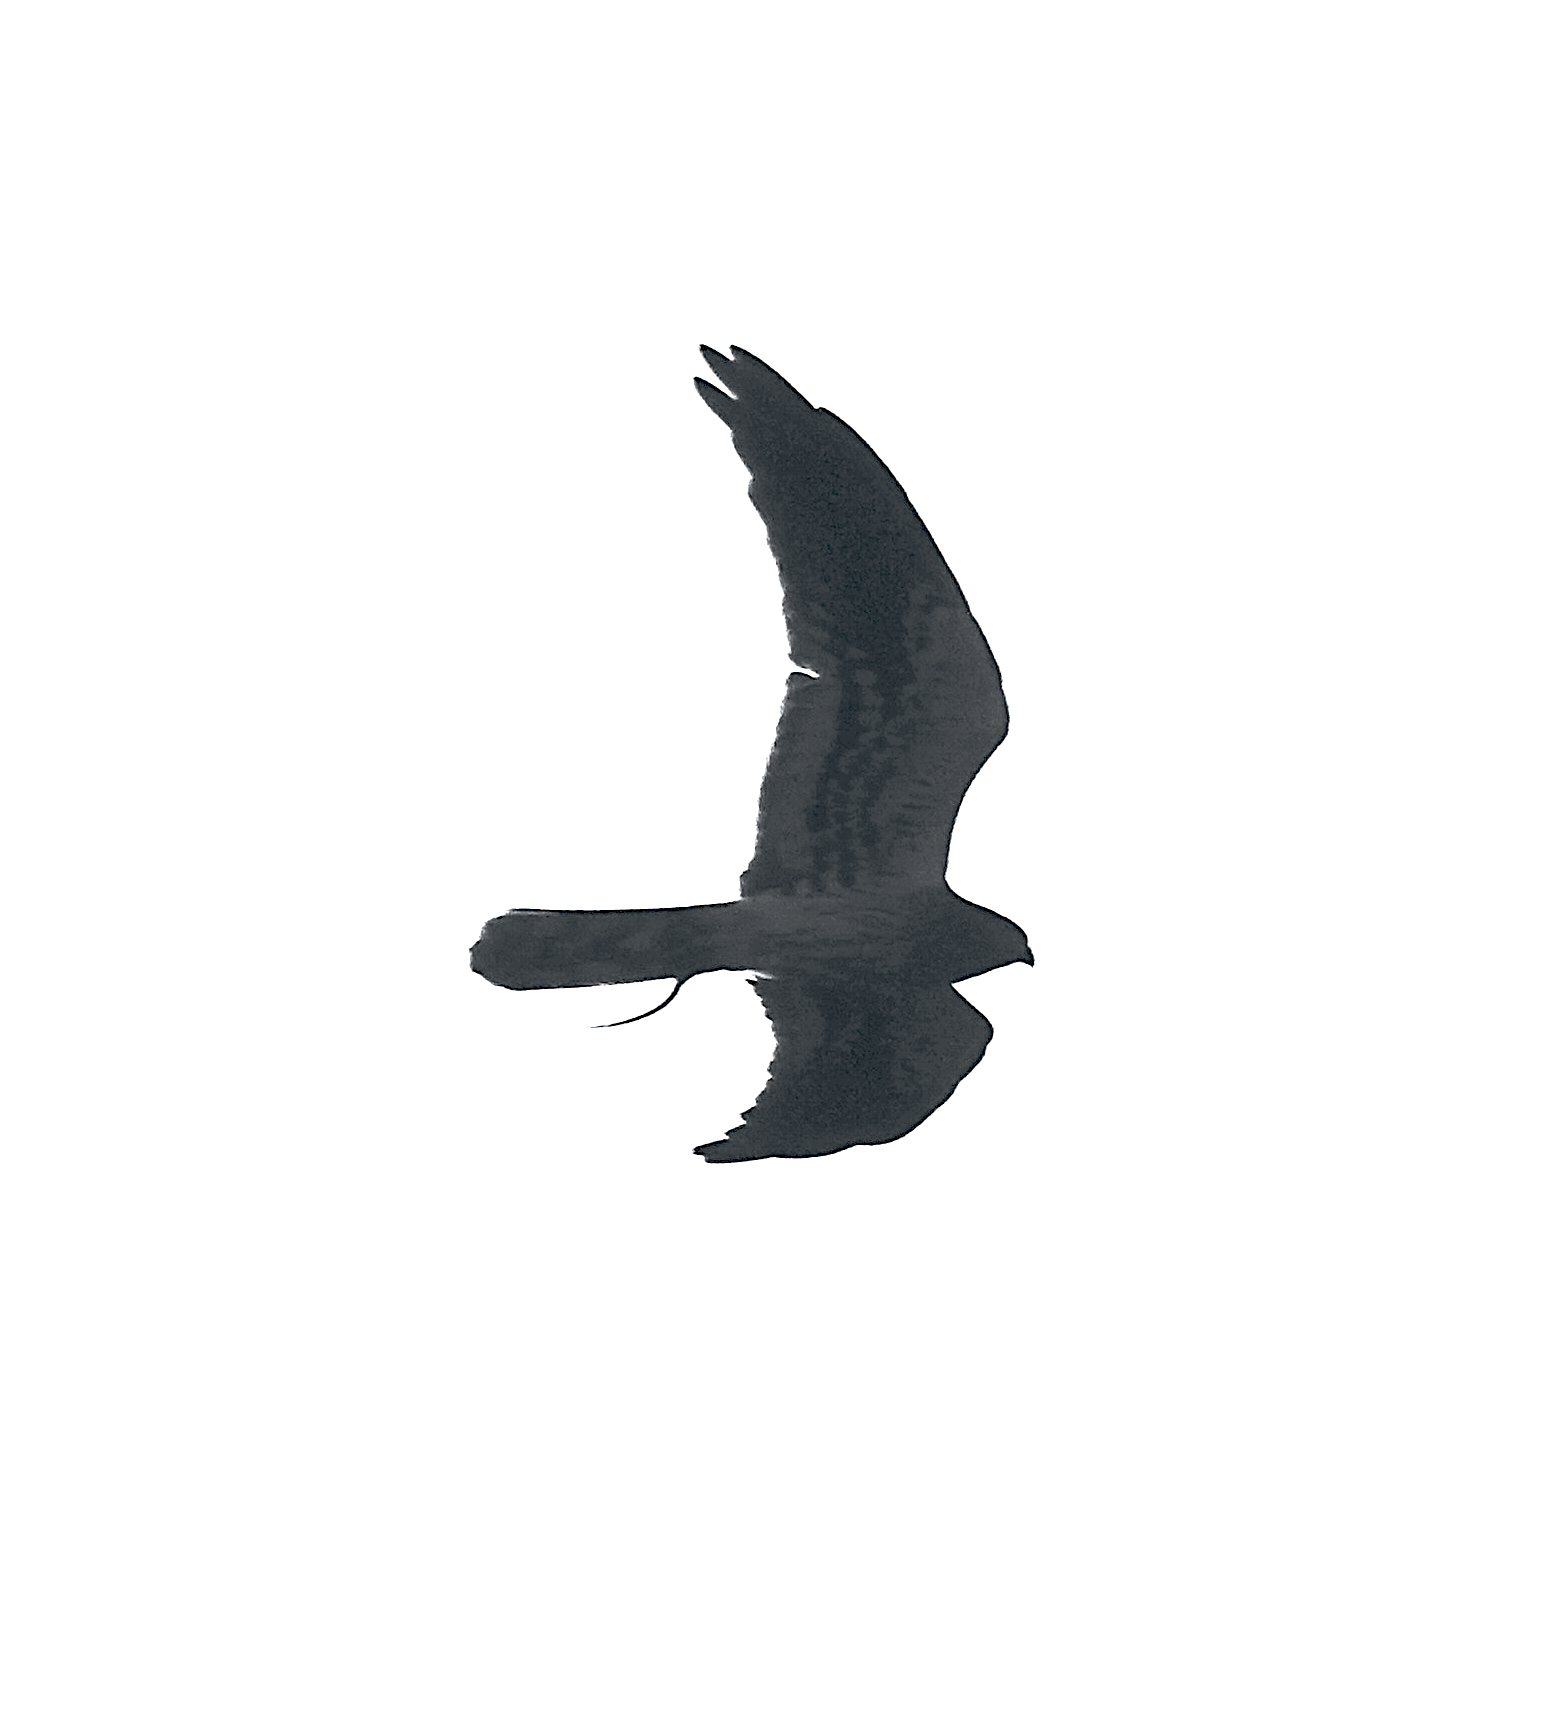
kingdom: Animalia
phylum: Chordata
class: Aves
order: Accipitriformes
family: Accipitridae
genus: Circus
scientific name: Circus pygargus
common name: Montagu's harrier
